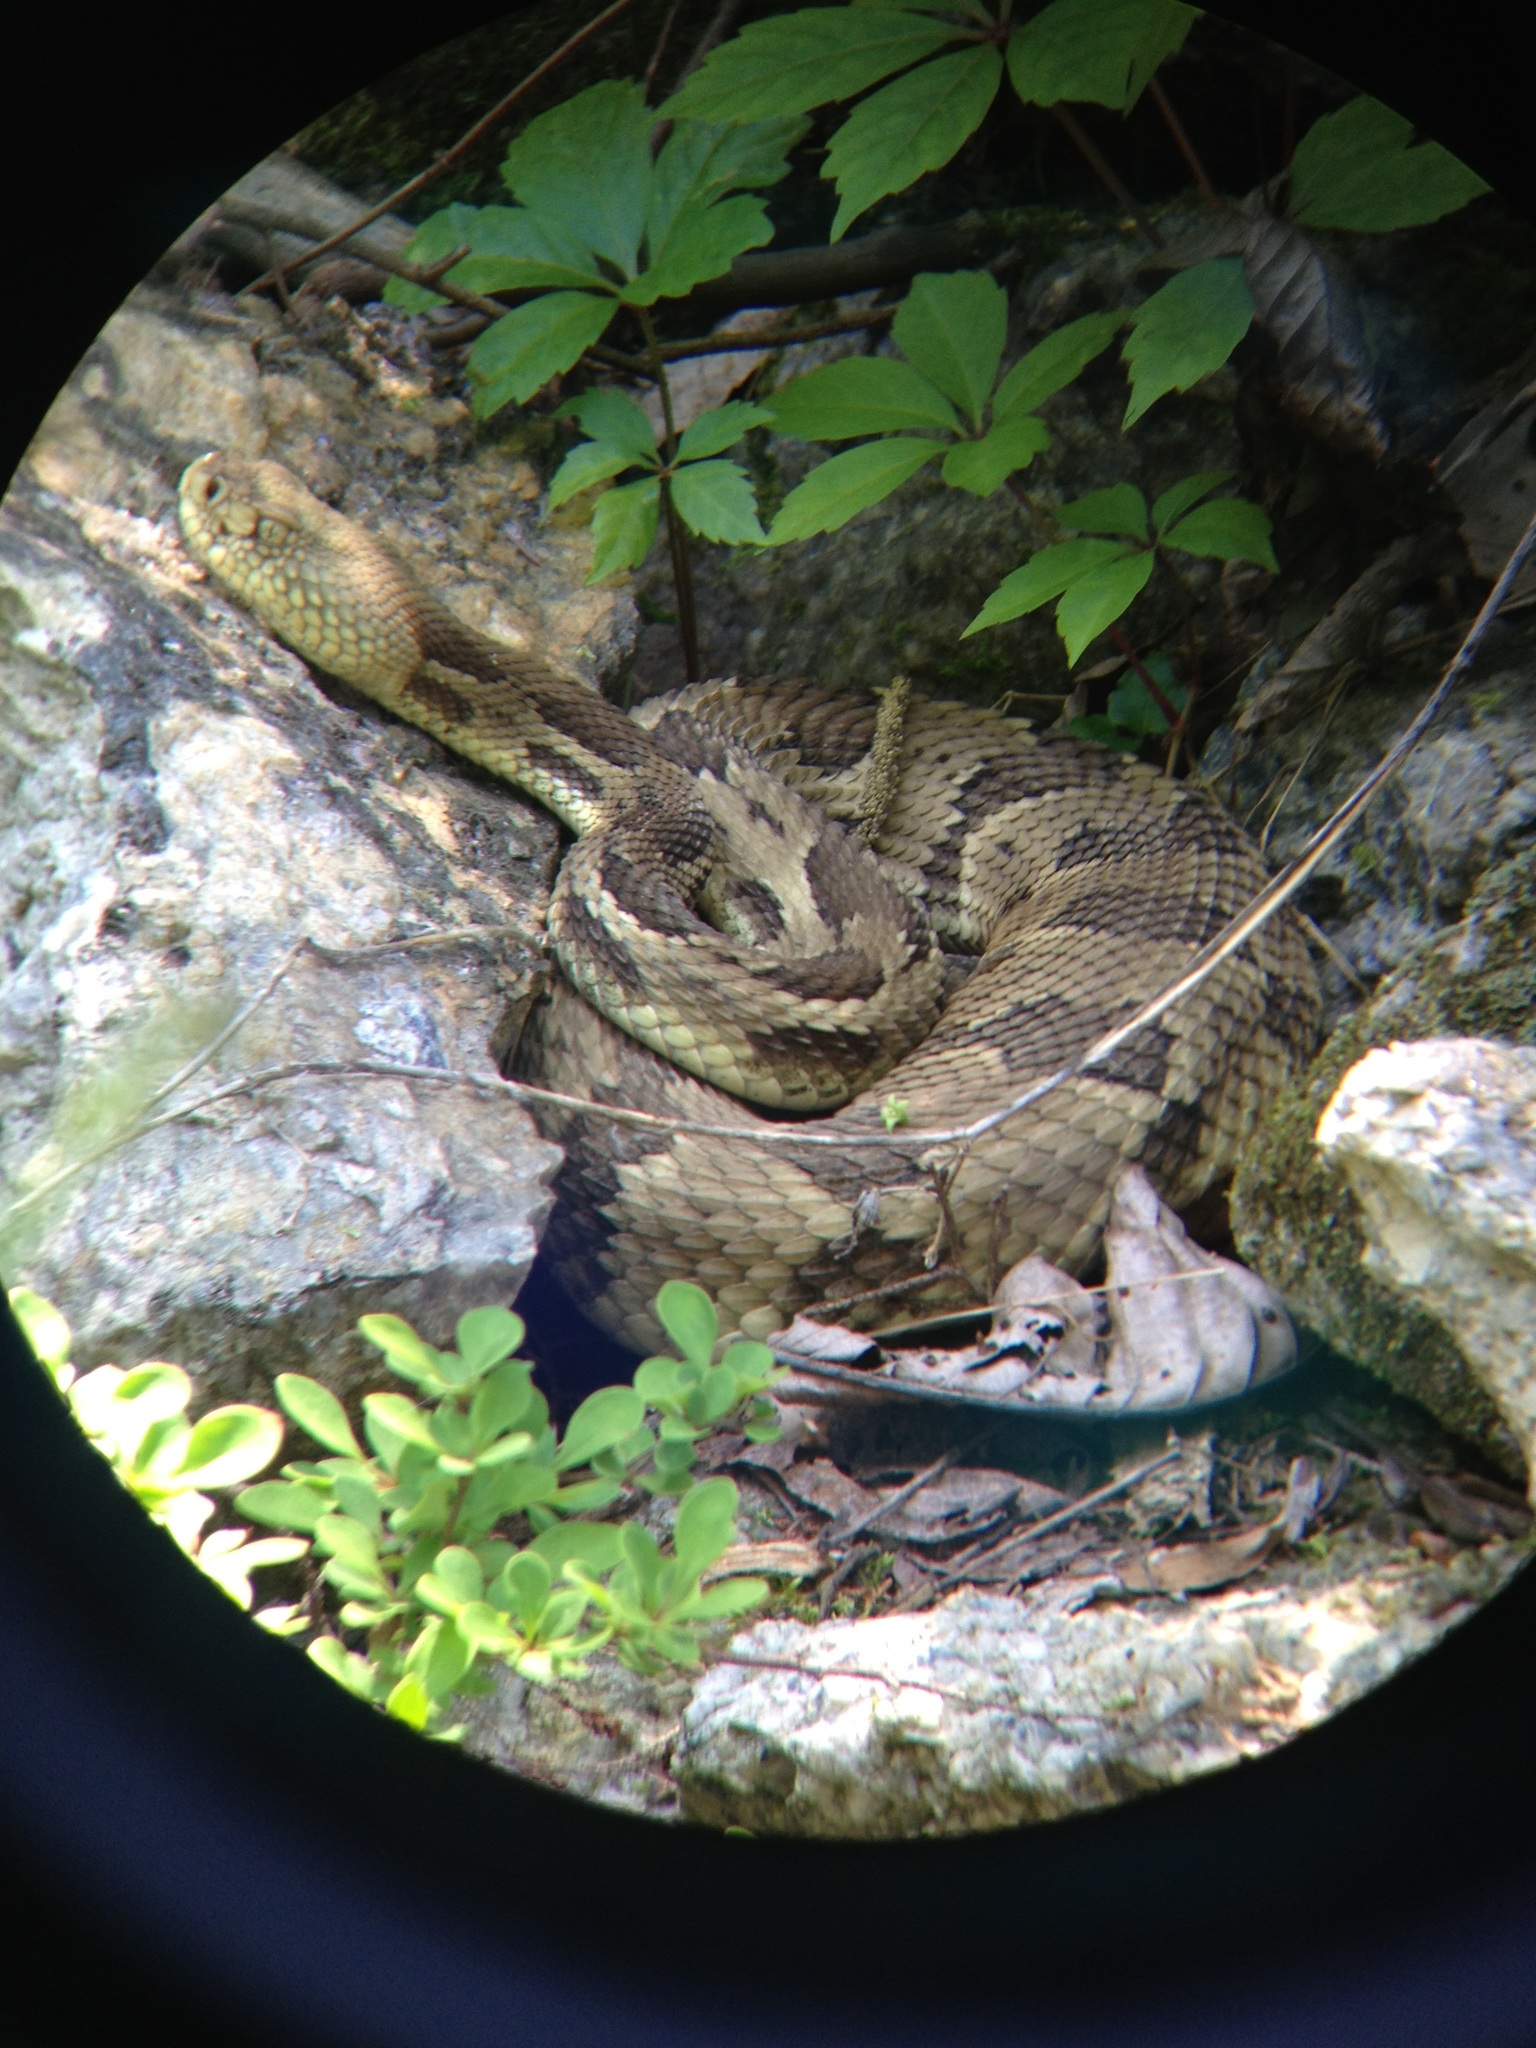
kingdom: Animalia
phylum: Chordata
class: Squamata
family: Viperidae
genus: Crotalus
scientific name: Crotalus horridus
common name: Timber rattlesnake
